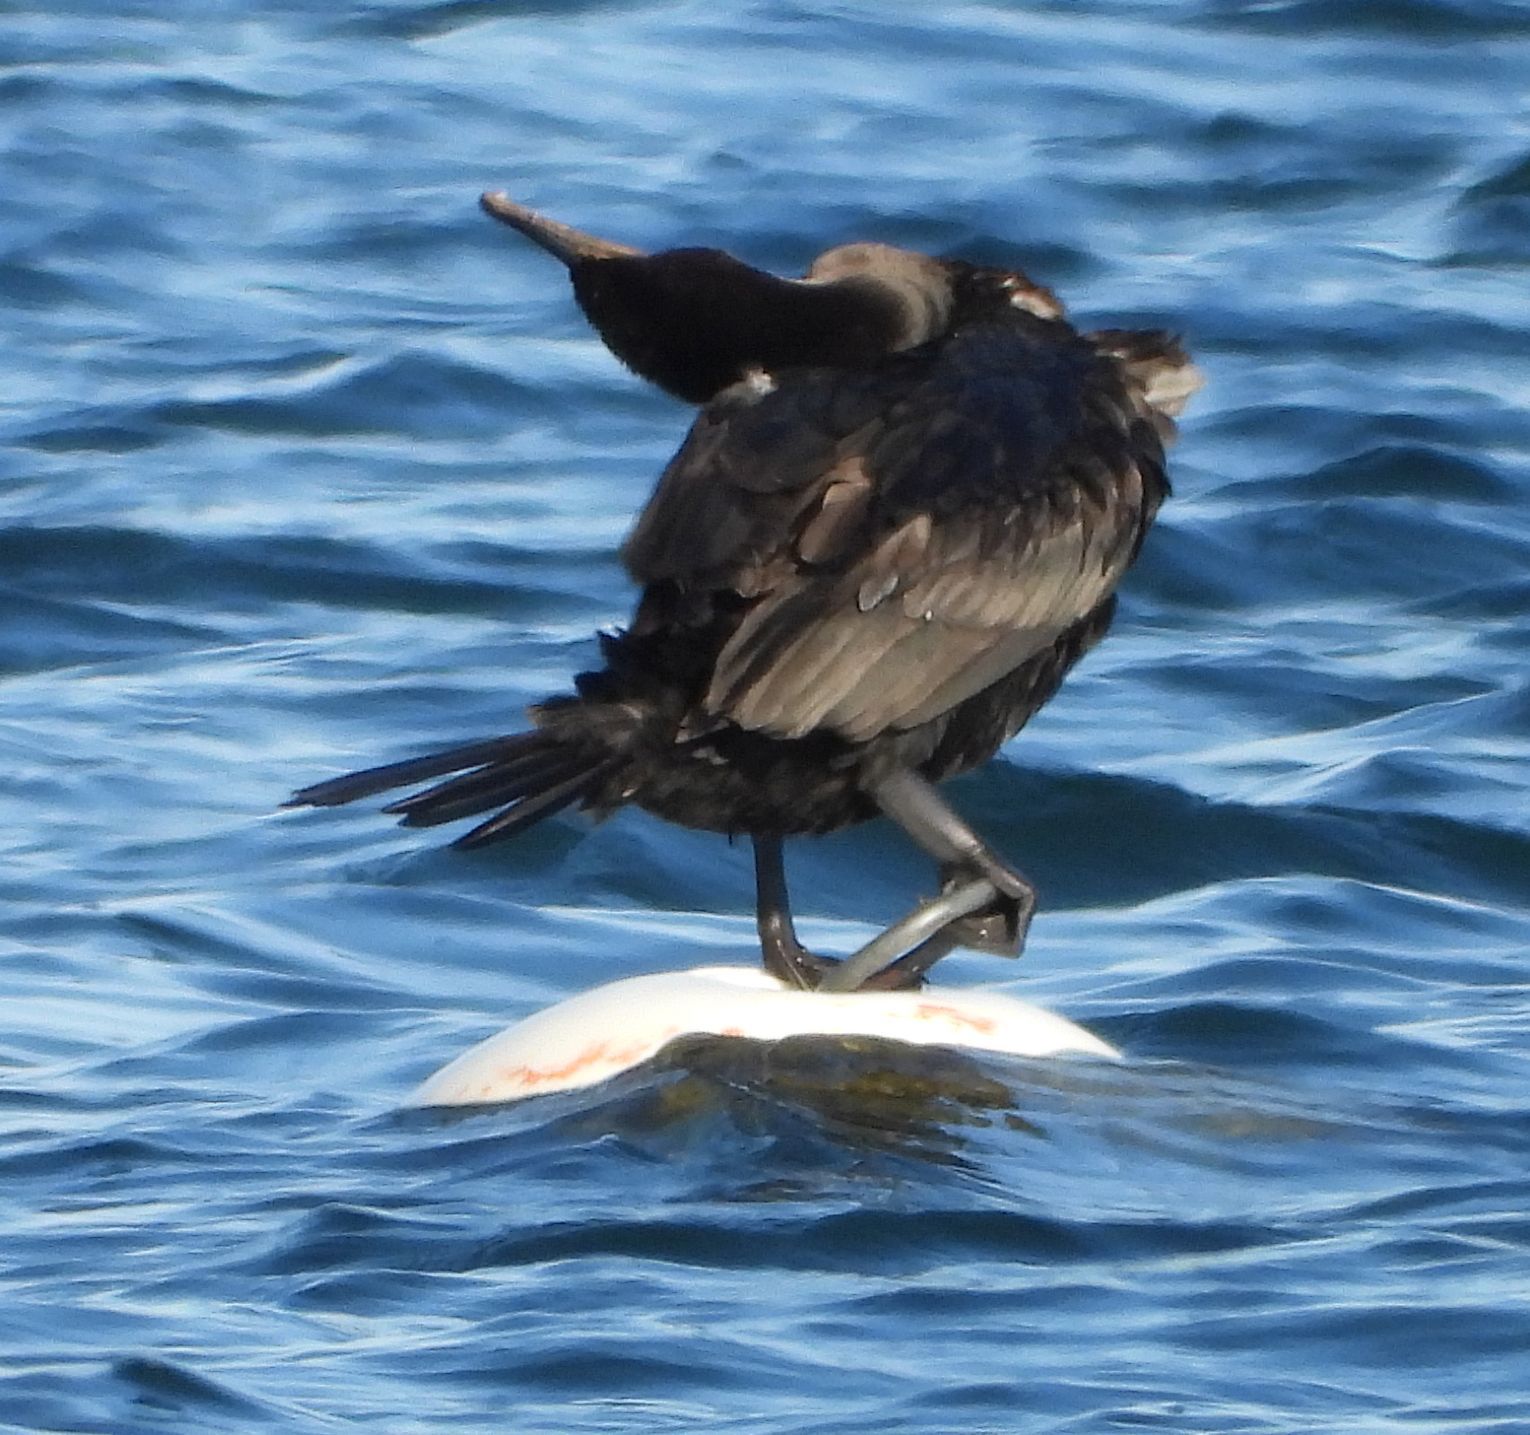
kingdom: Animalia
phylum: Chordata
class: Aves
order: Suliformes
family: Phalacrocoracidae
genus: Phalacrocorax
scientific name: Phalacrocorax auritus
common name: Double-crested cormorant
